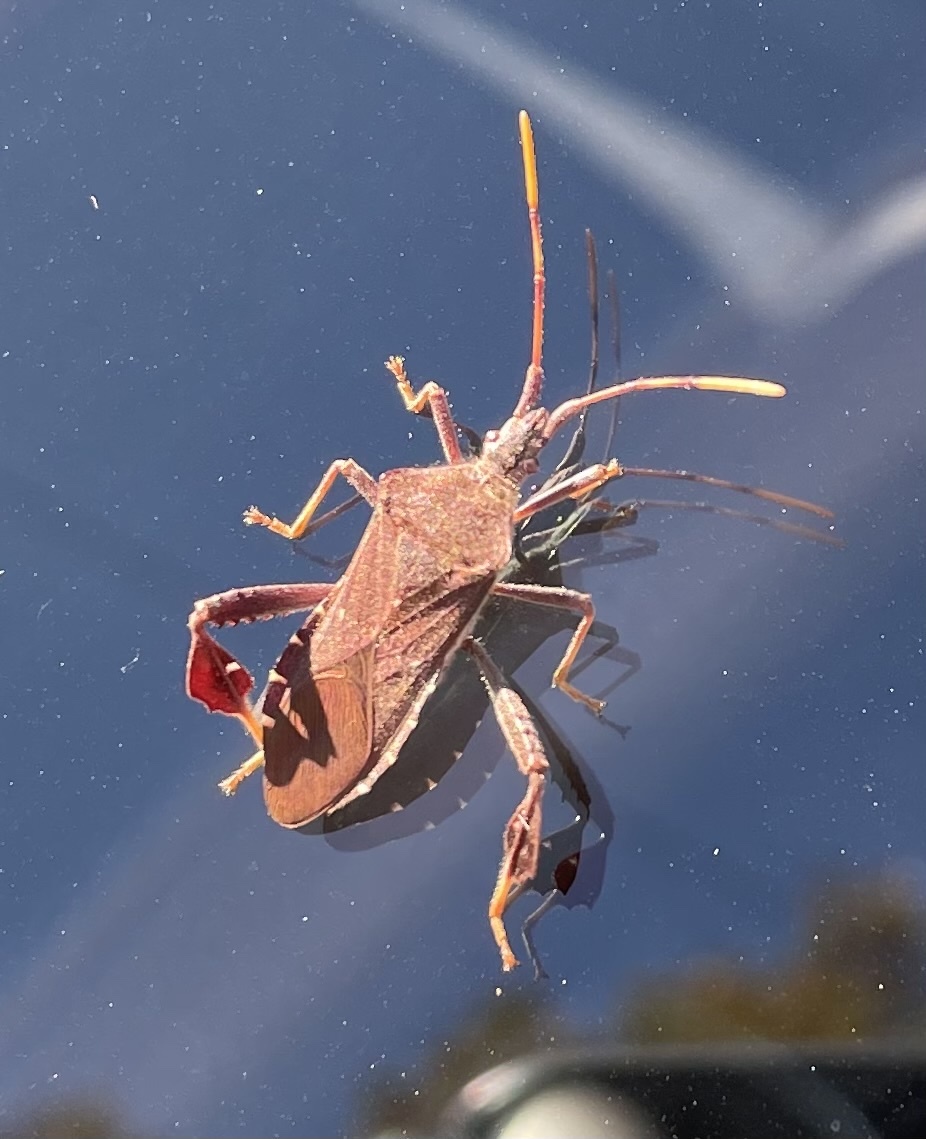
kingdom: Animalia
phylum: Arthropoda
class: Insecta
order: Hemiptera
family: Coreidae
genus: Leptoglossus
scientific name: Leptoglossus oppositus
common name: Northern leaf-footed bug
